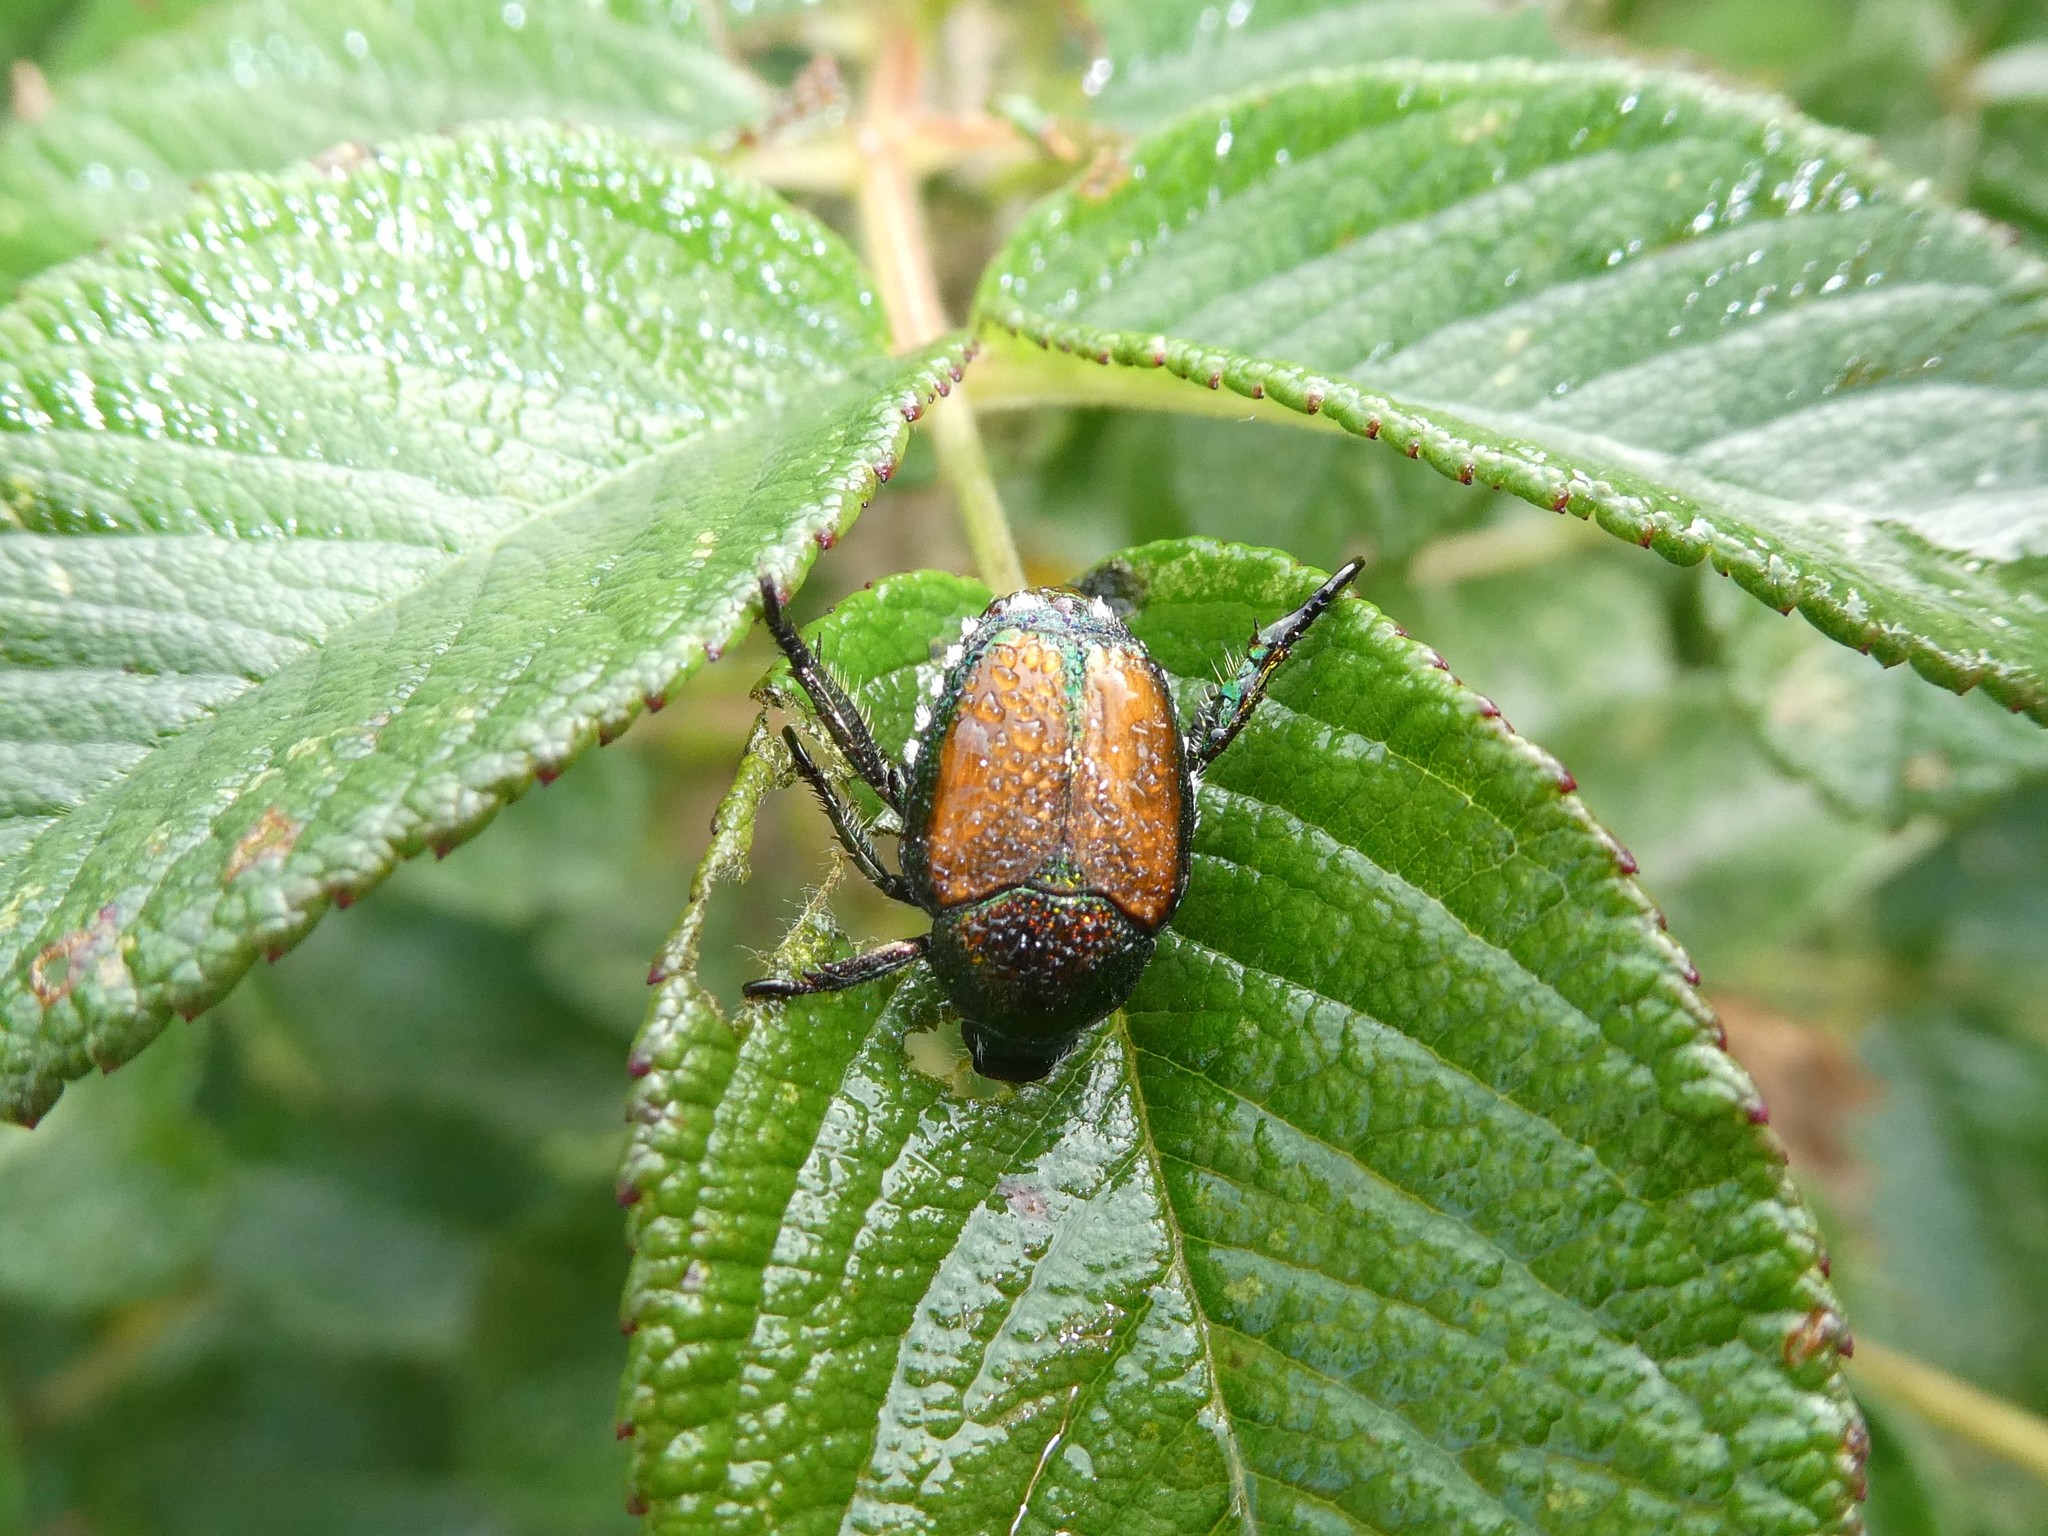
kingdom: Animalia
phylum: Arthropoda
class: Insecta
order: Coleoptera
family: Scarabaeidae
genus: Popillia
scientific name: Popillia japonica
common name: Japanese beetle
